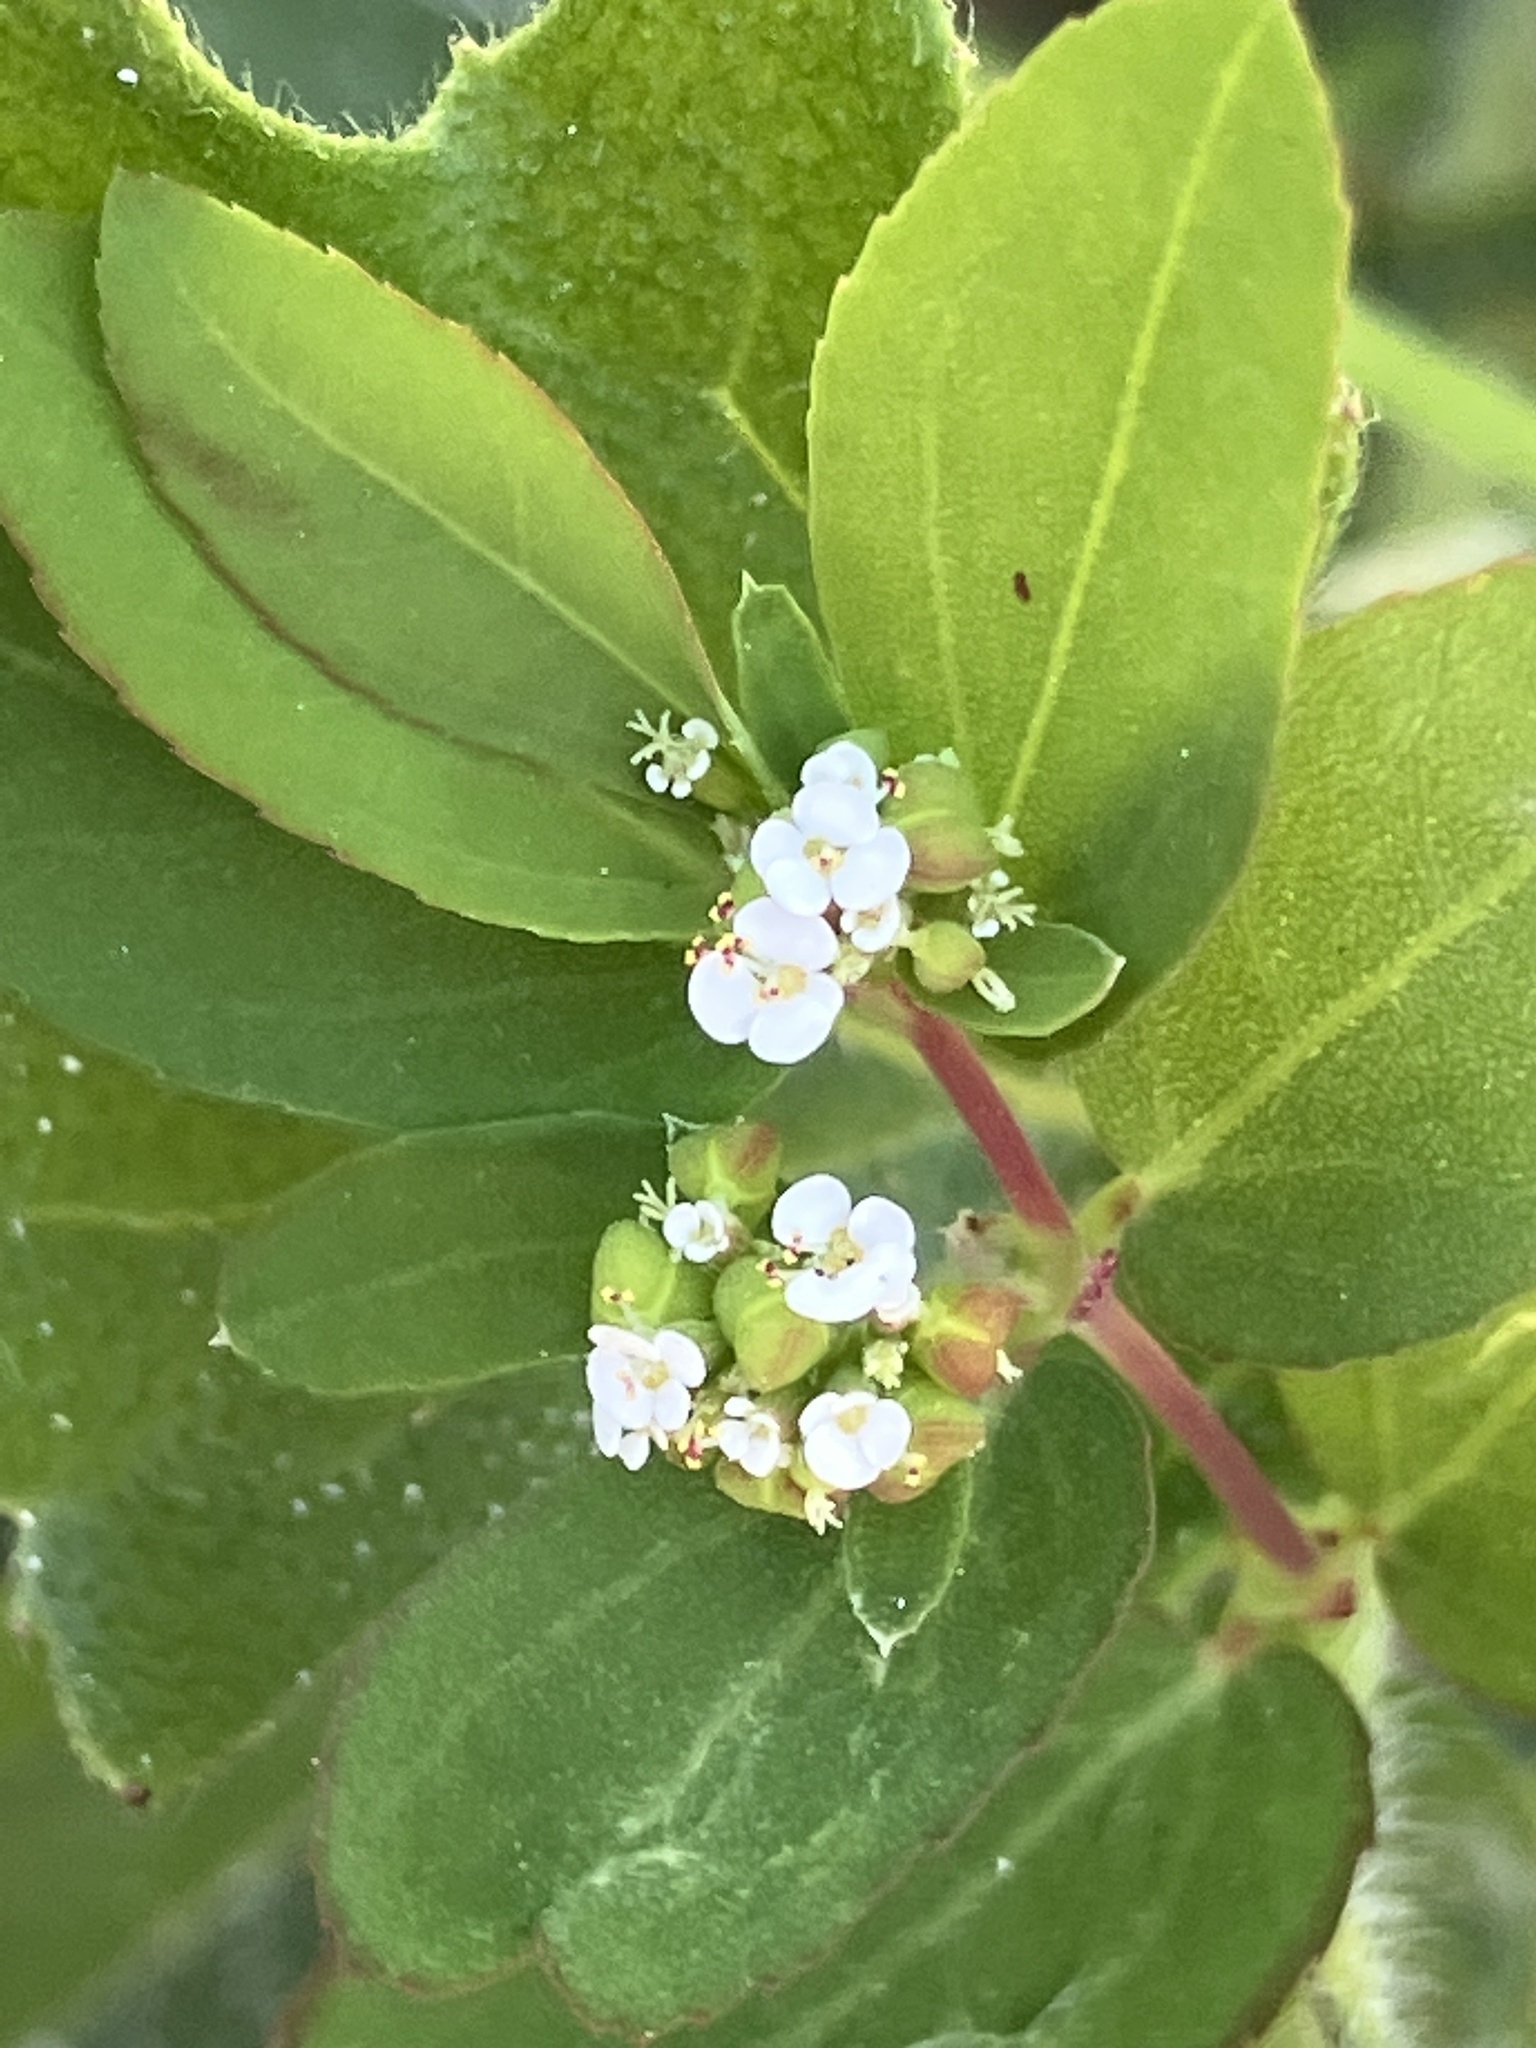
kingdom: Plantae
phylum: Tracheophyta
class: Magnoliopsida
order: Malpighiales
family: Euphorbiaceae
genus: Euphorbia
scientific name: Euphorbia hypericifolia
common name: Graceful sandmat
